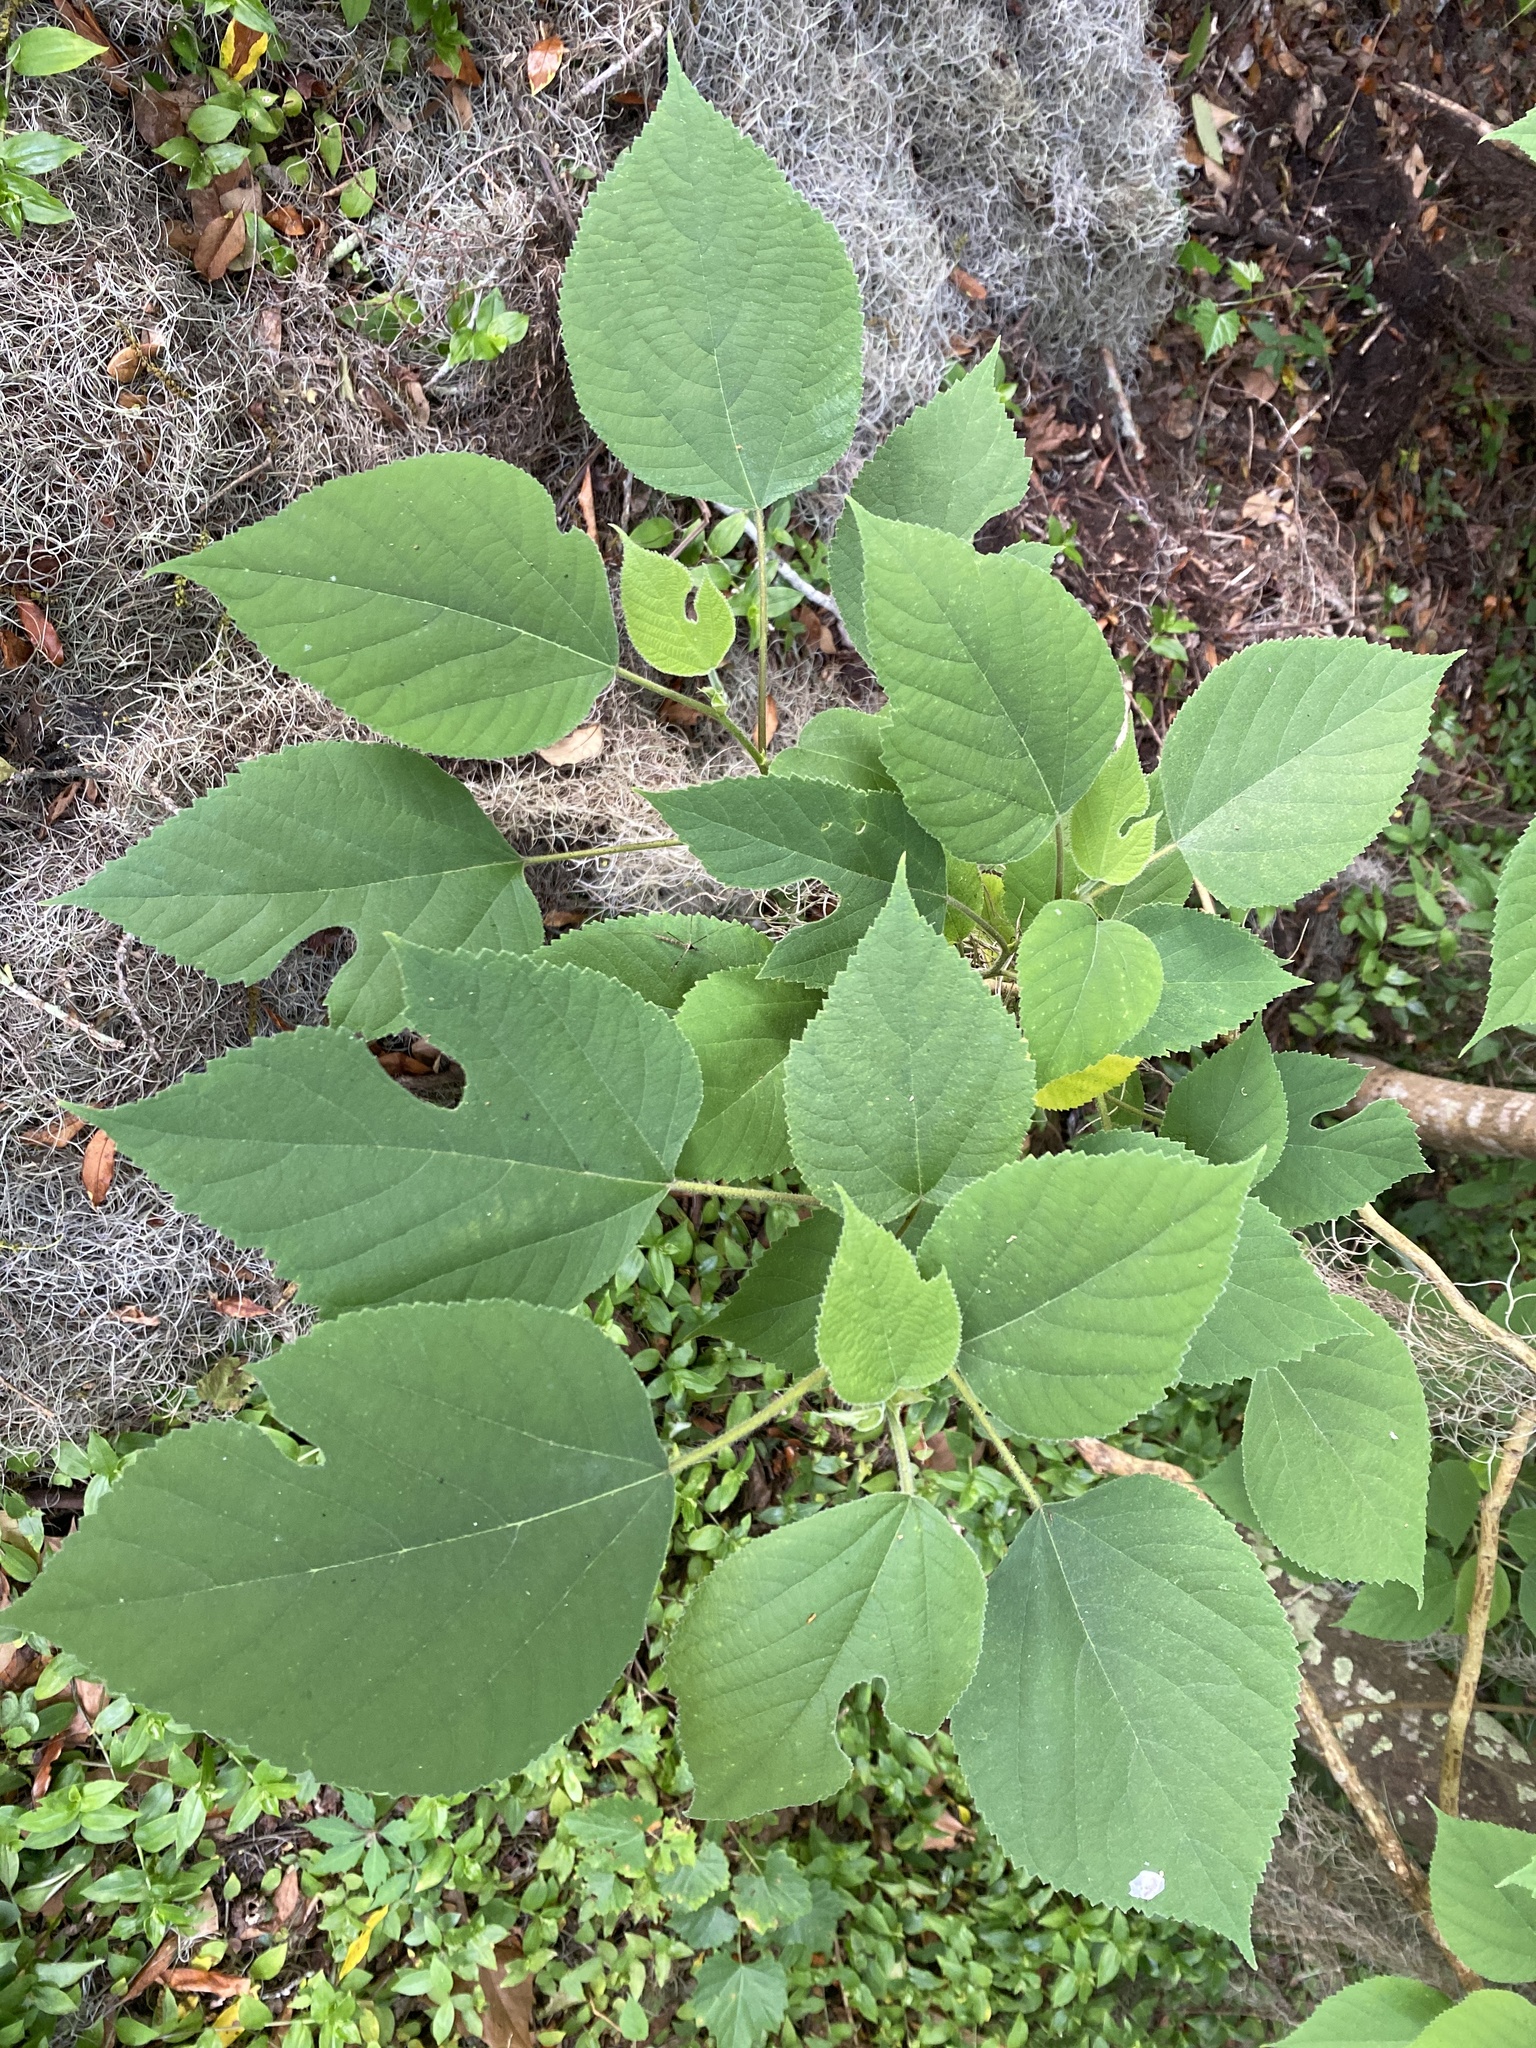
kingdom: Plantae
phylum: Tracheophyta
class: Magnoliopsida
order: Rosales
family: Moraceae
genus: Broussonetia
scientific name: Broussonetia papyrifera
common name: Paper mulberry
